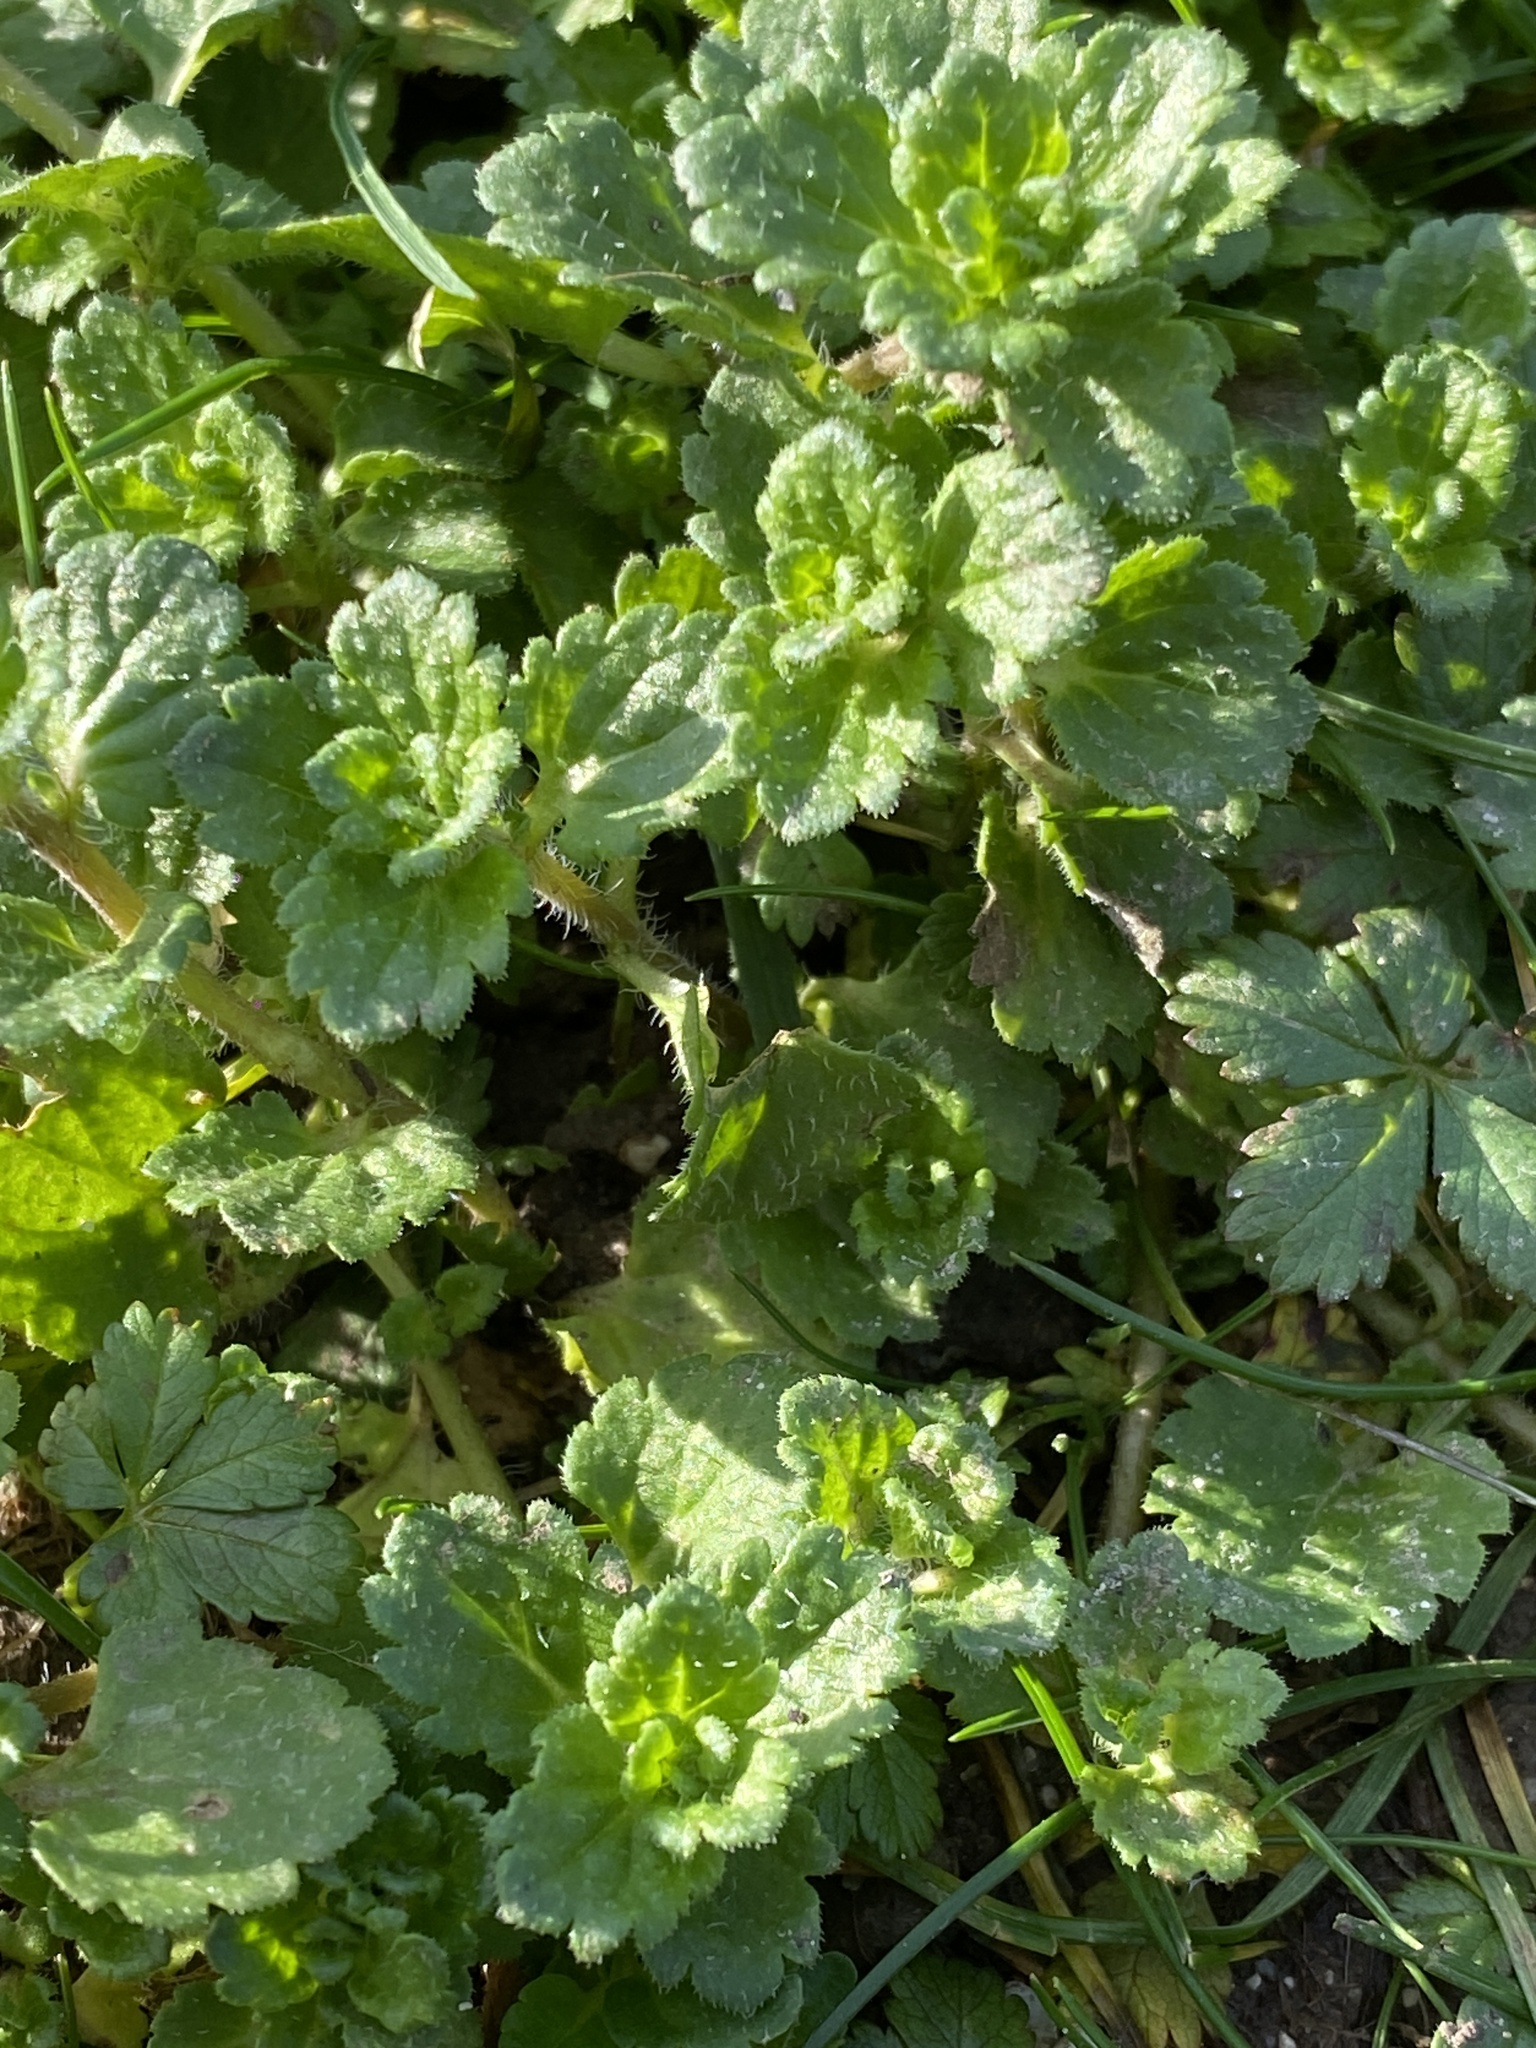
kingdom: Plantae
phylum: Tracheophyta
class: Magnoliopsida
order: Lamiales
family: Plantaginaceae
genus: Veronica
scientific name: Veronica persica
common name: Common field-speedwell
